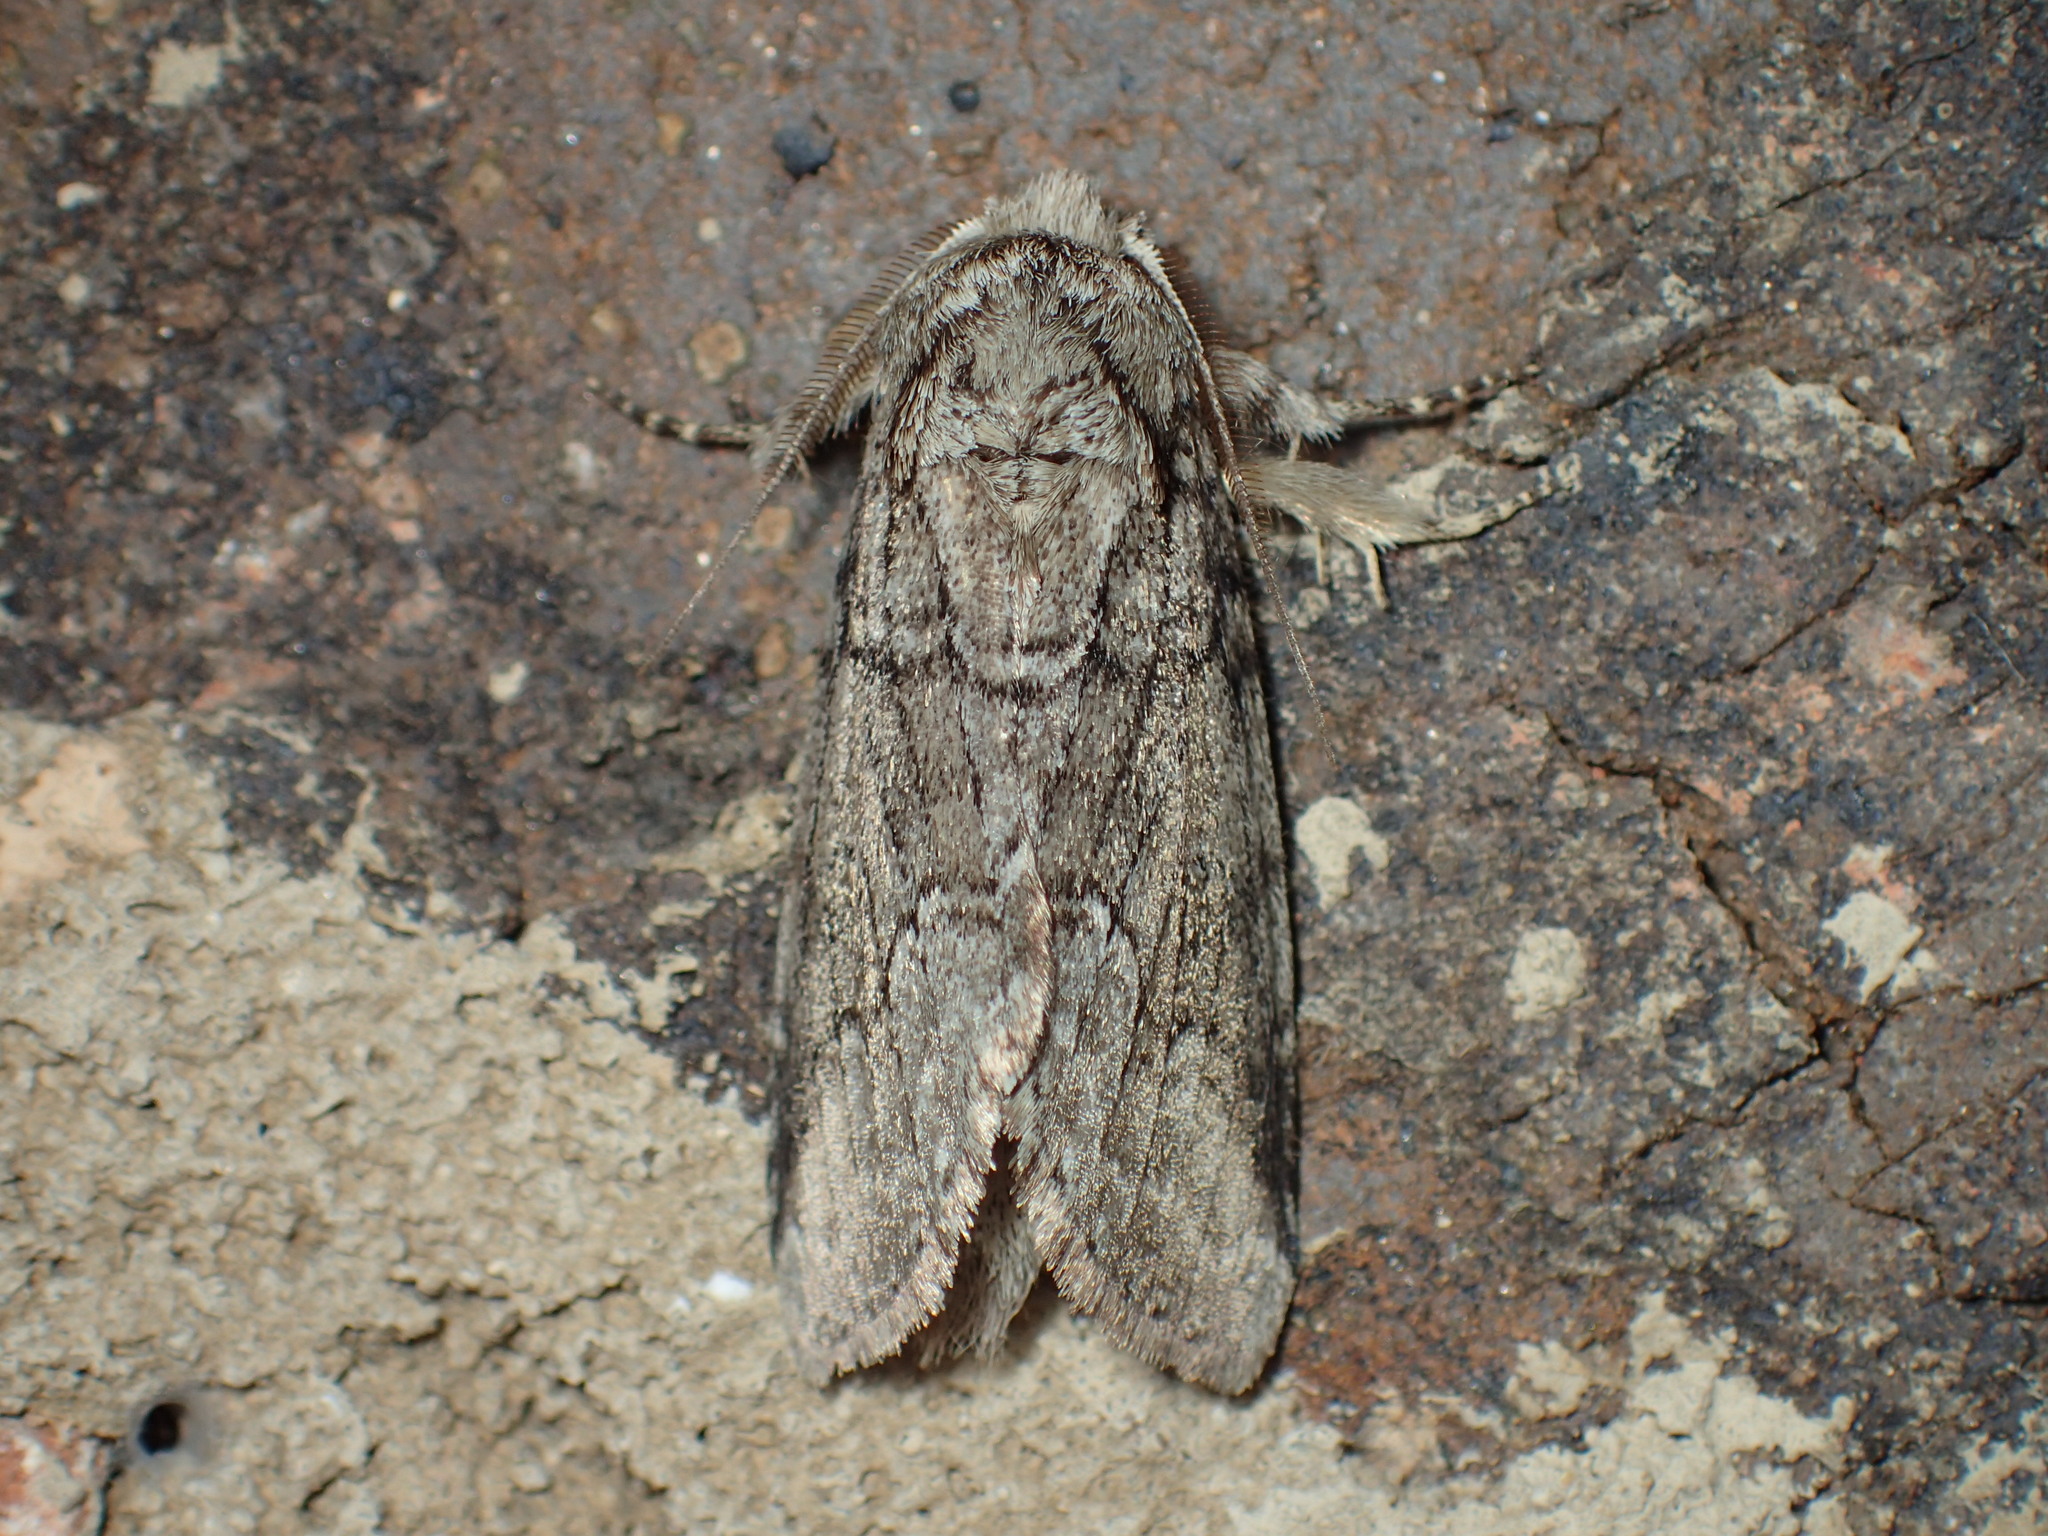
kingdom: Animalia
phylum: Arthropoda
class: Insecta
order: Lepidoptera
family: Notodontidae
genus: Lochmaeus
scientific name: Lochmaeus bilineata
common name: Double-lined prominent
